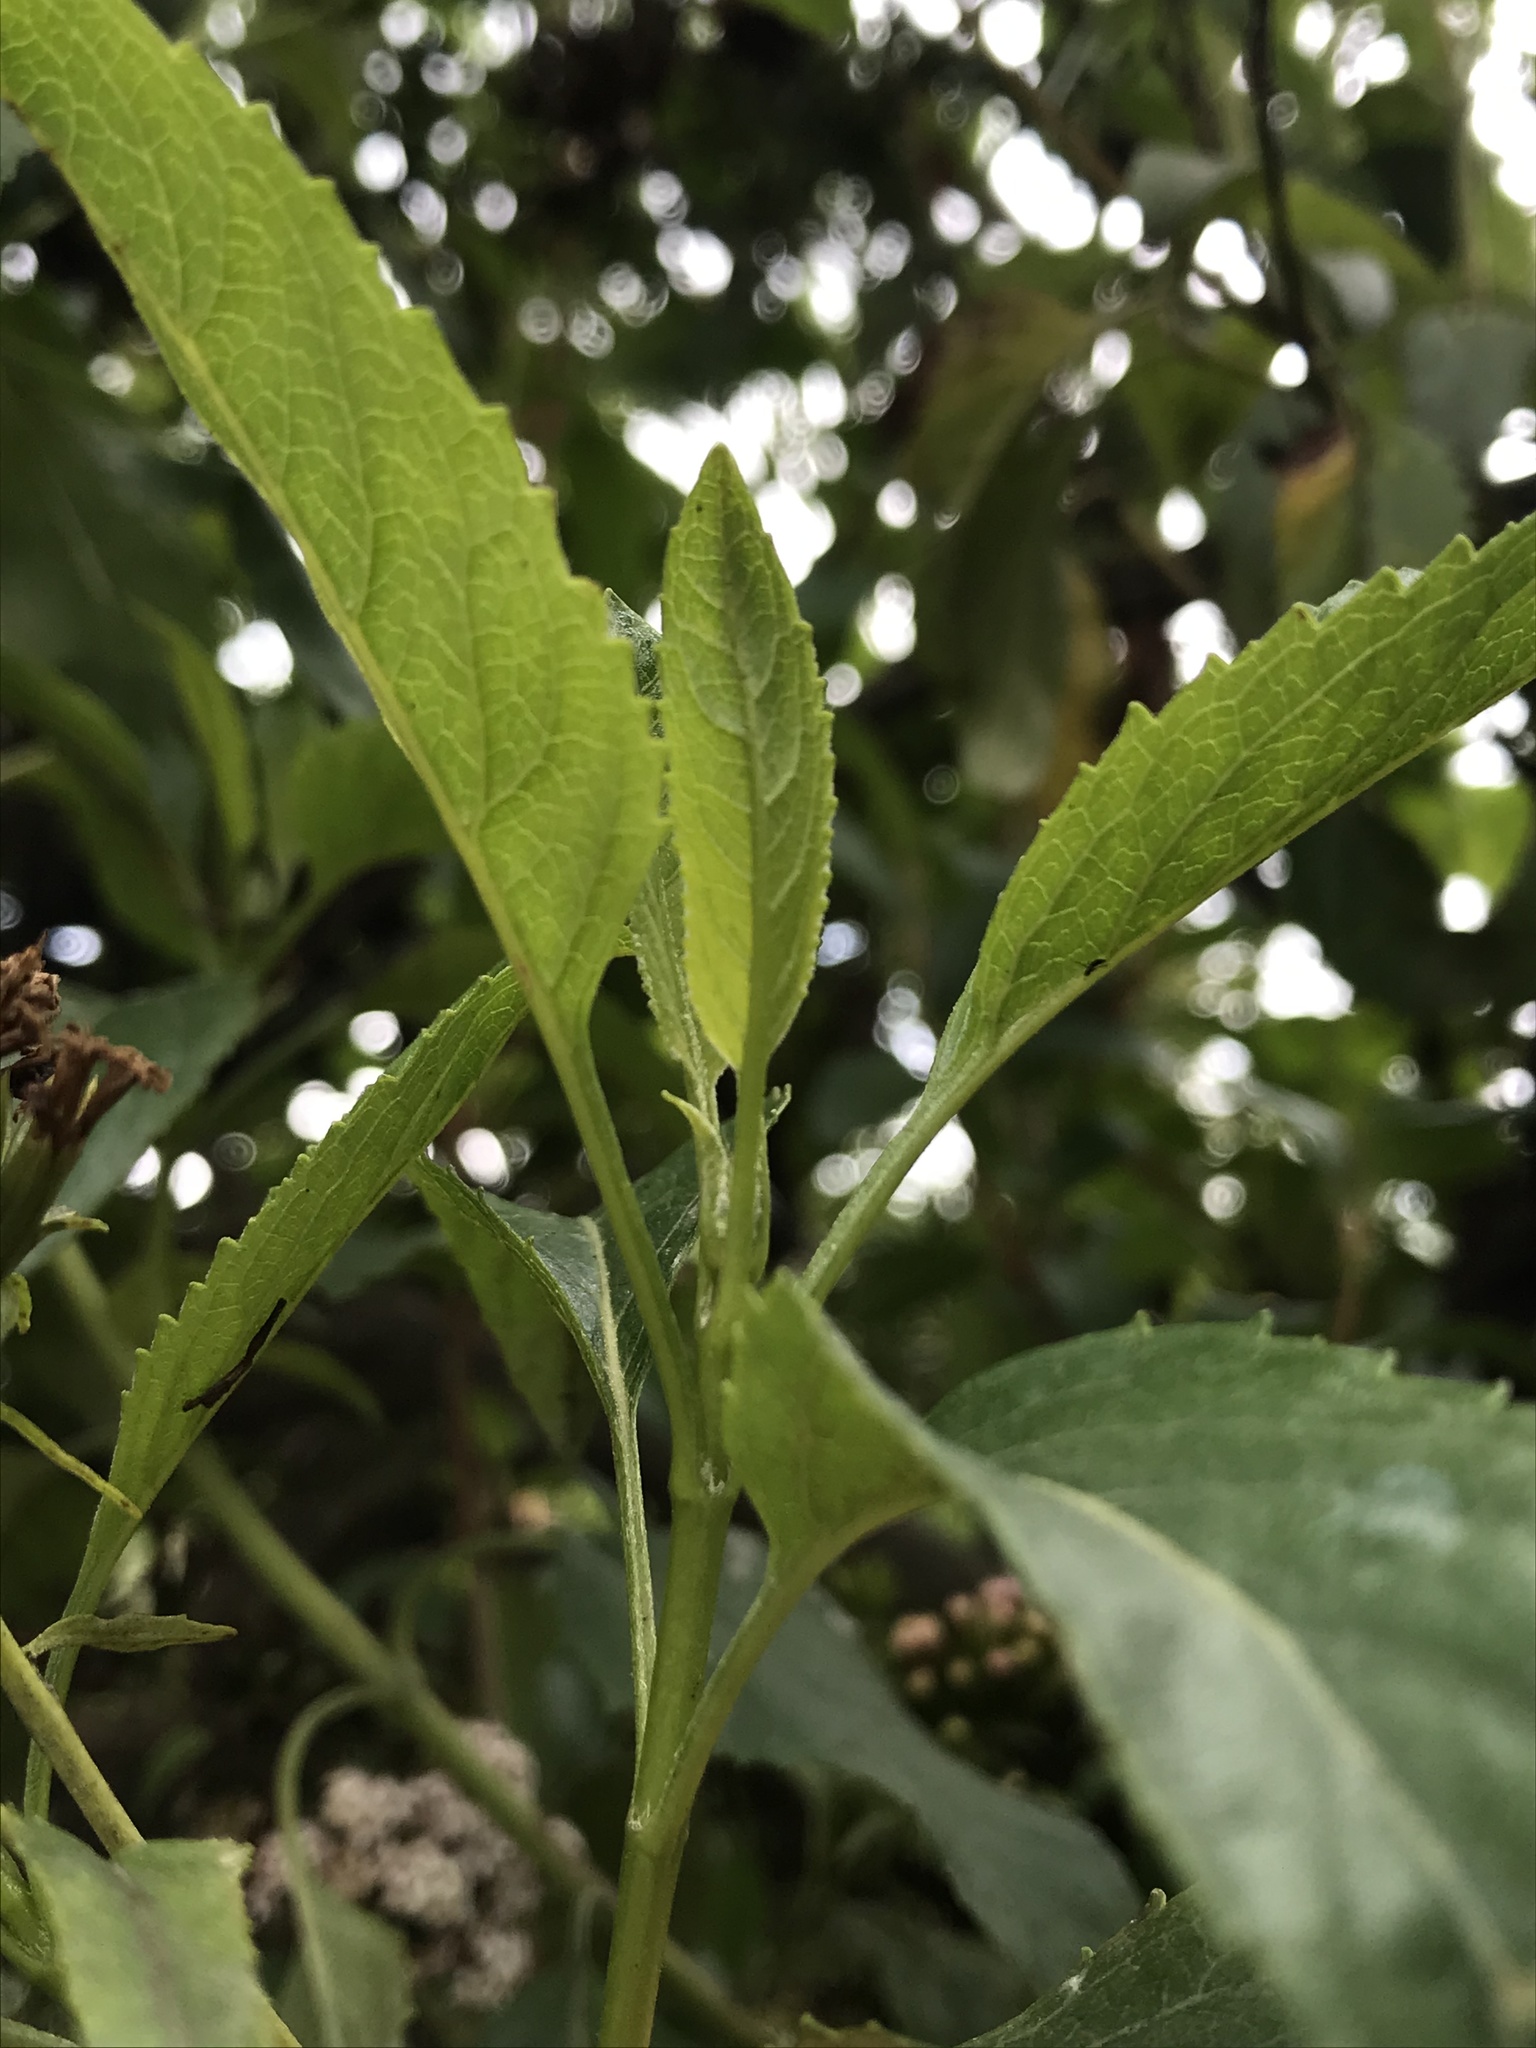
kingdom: Plantae
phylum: Tracheophyta
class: Magnoliopsida
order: Asterales
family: Asteraceae
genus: Stevia
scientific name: Stevia lucida
